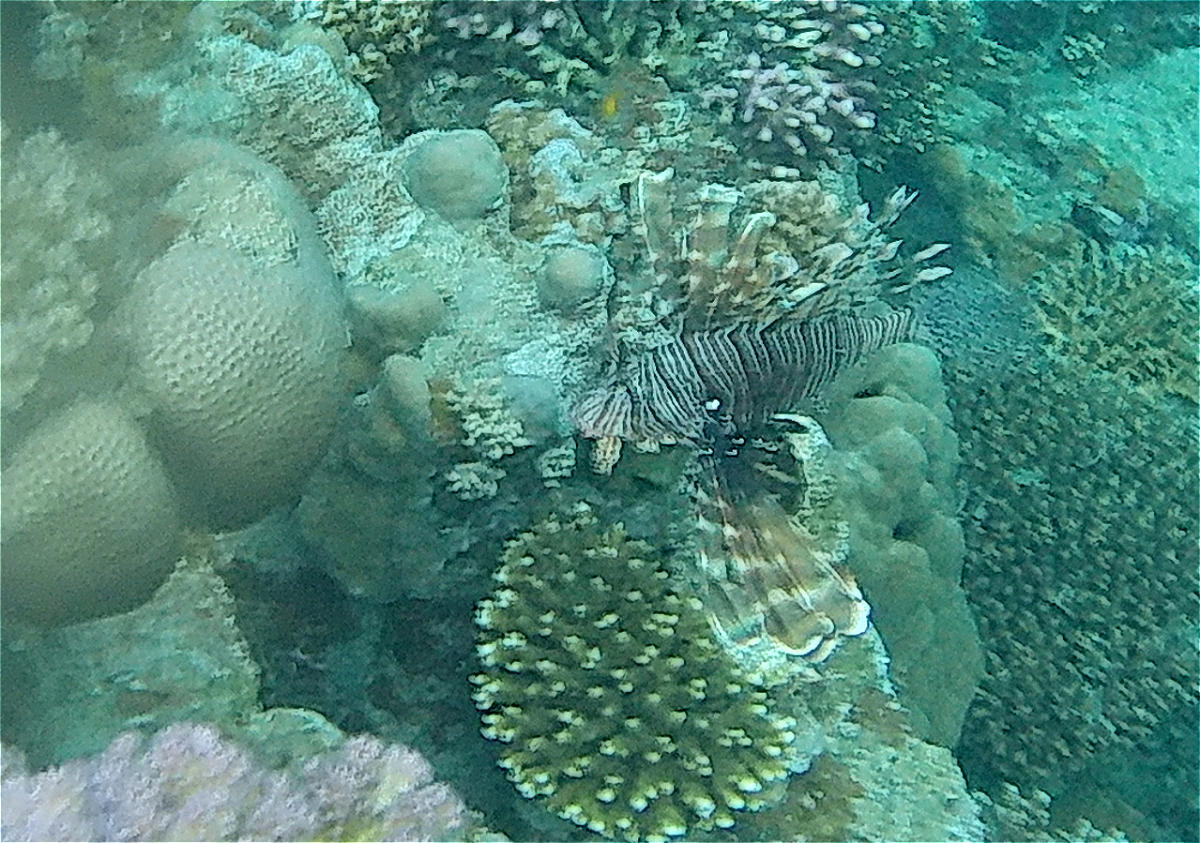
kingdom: Animalia
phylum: Chordata
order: Scorpaeniformes
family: Scorpaenidae
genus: Pterois
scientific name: Pterois miles
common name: Devil firefish
